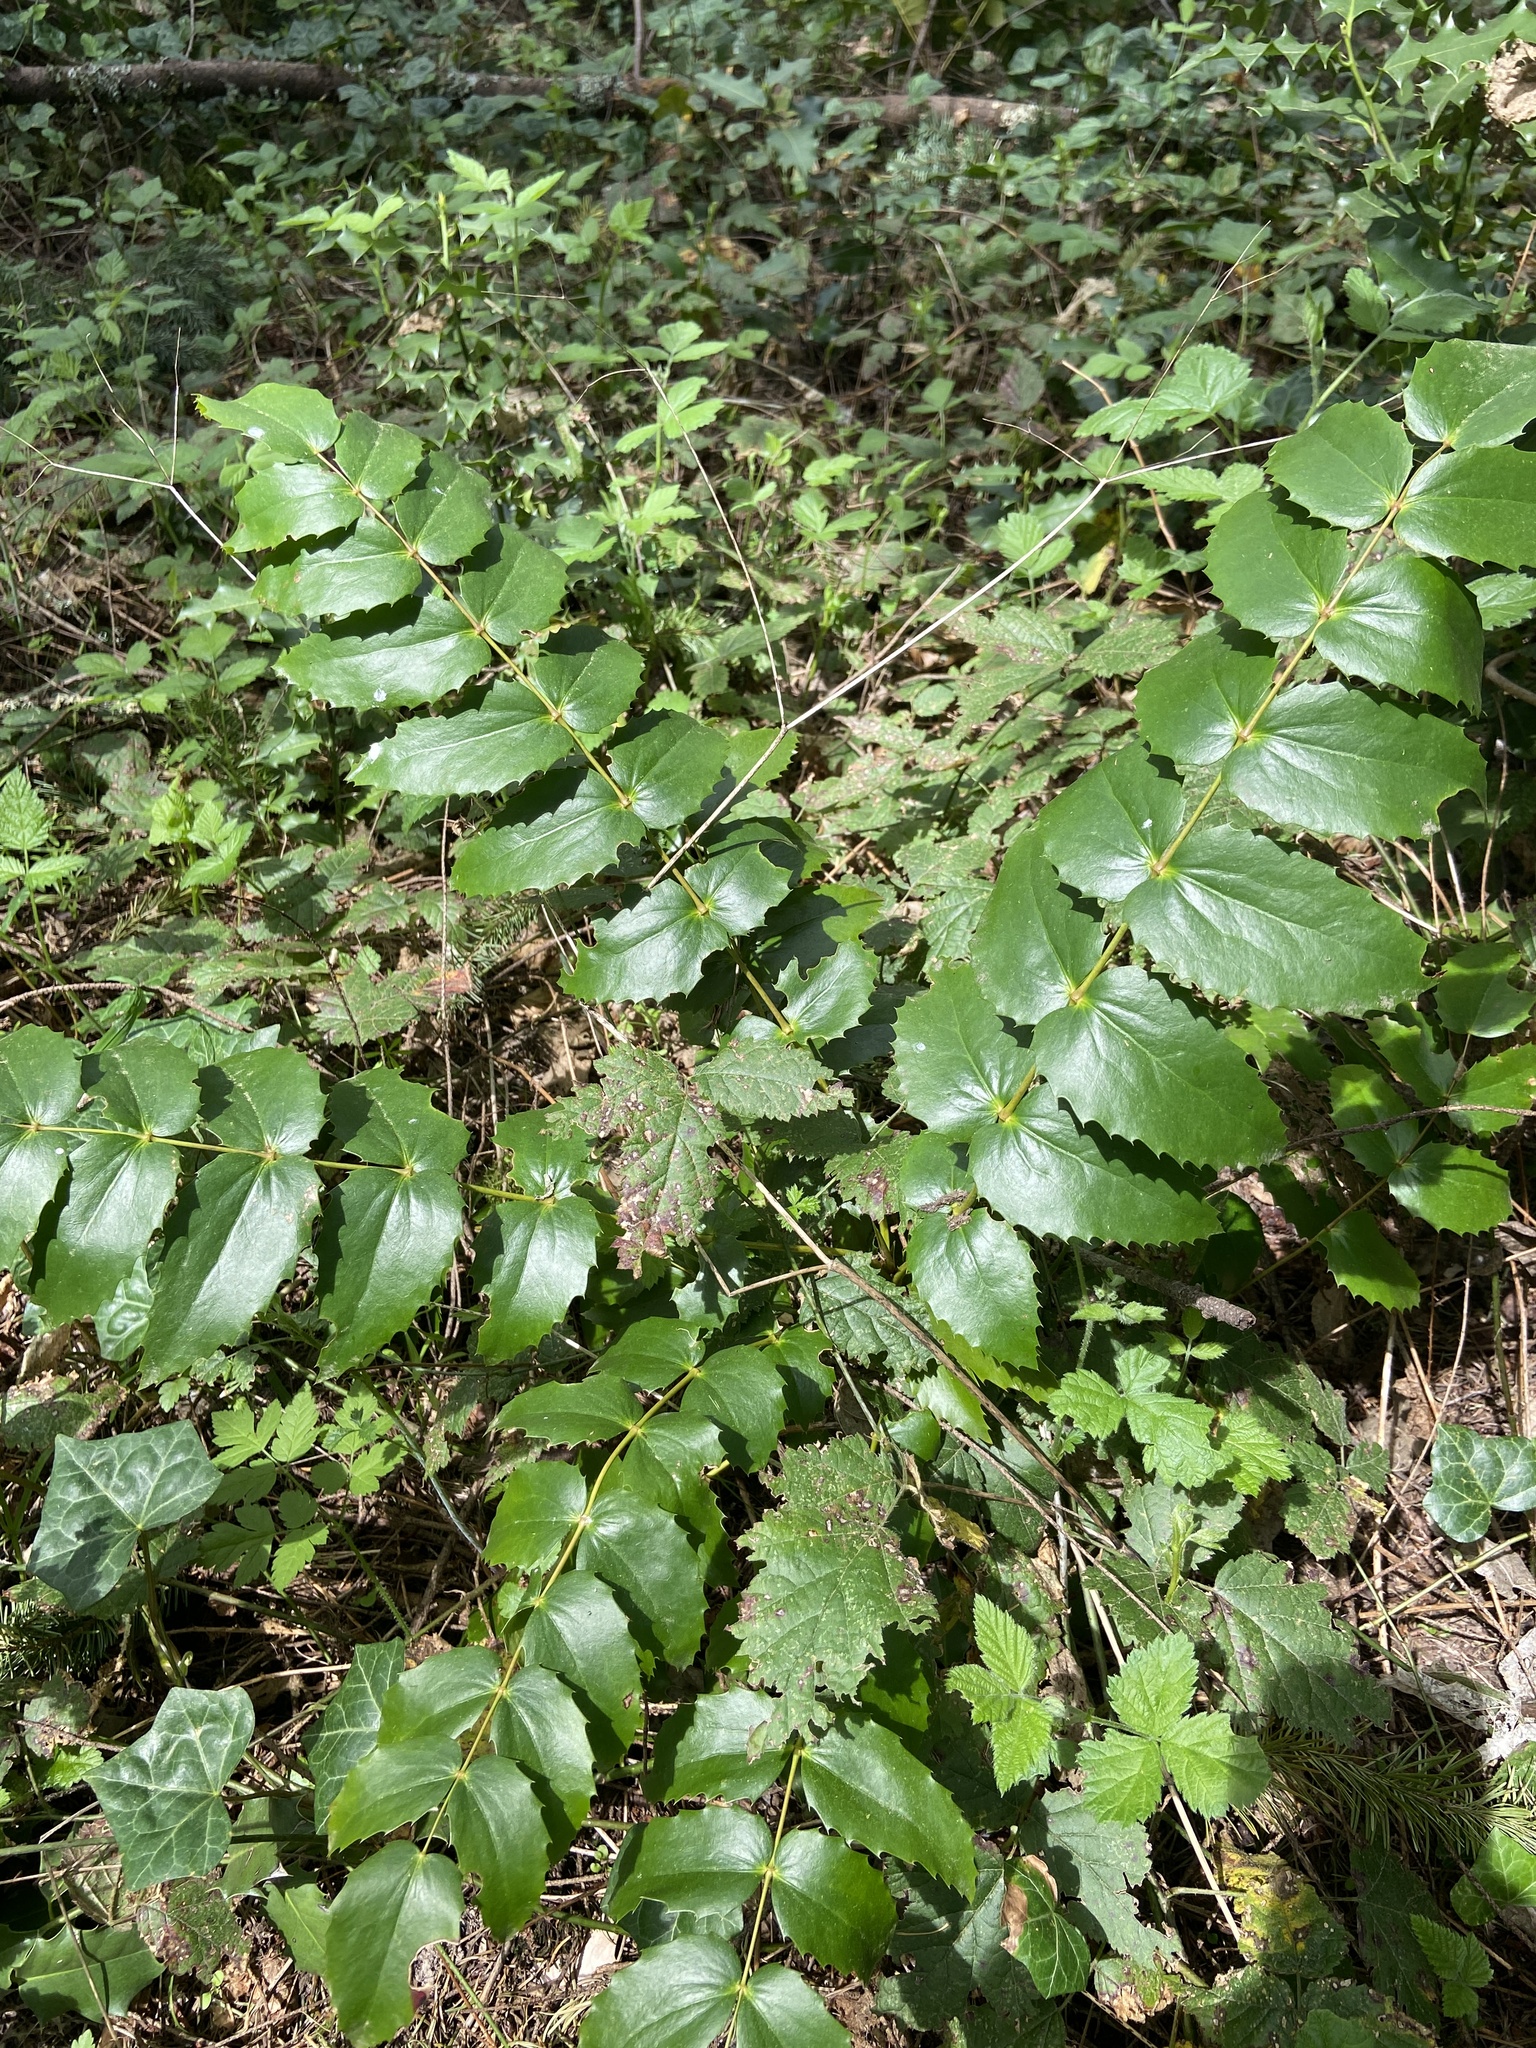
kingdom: Plantae
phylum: Tracheophyta
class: Magnoliopsida
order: Ranunculales
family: Berberidaceae
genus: Mahonia
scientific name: Mahonia nervosa
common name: Cascade oregon-grape
